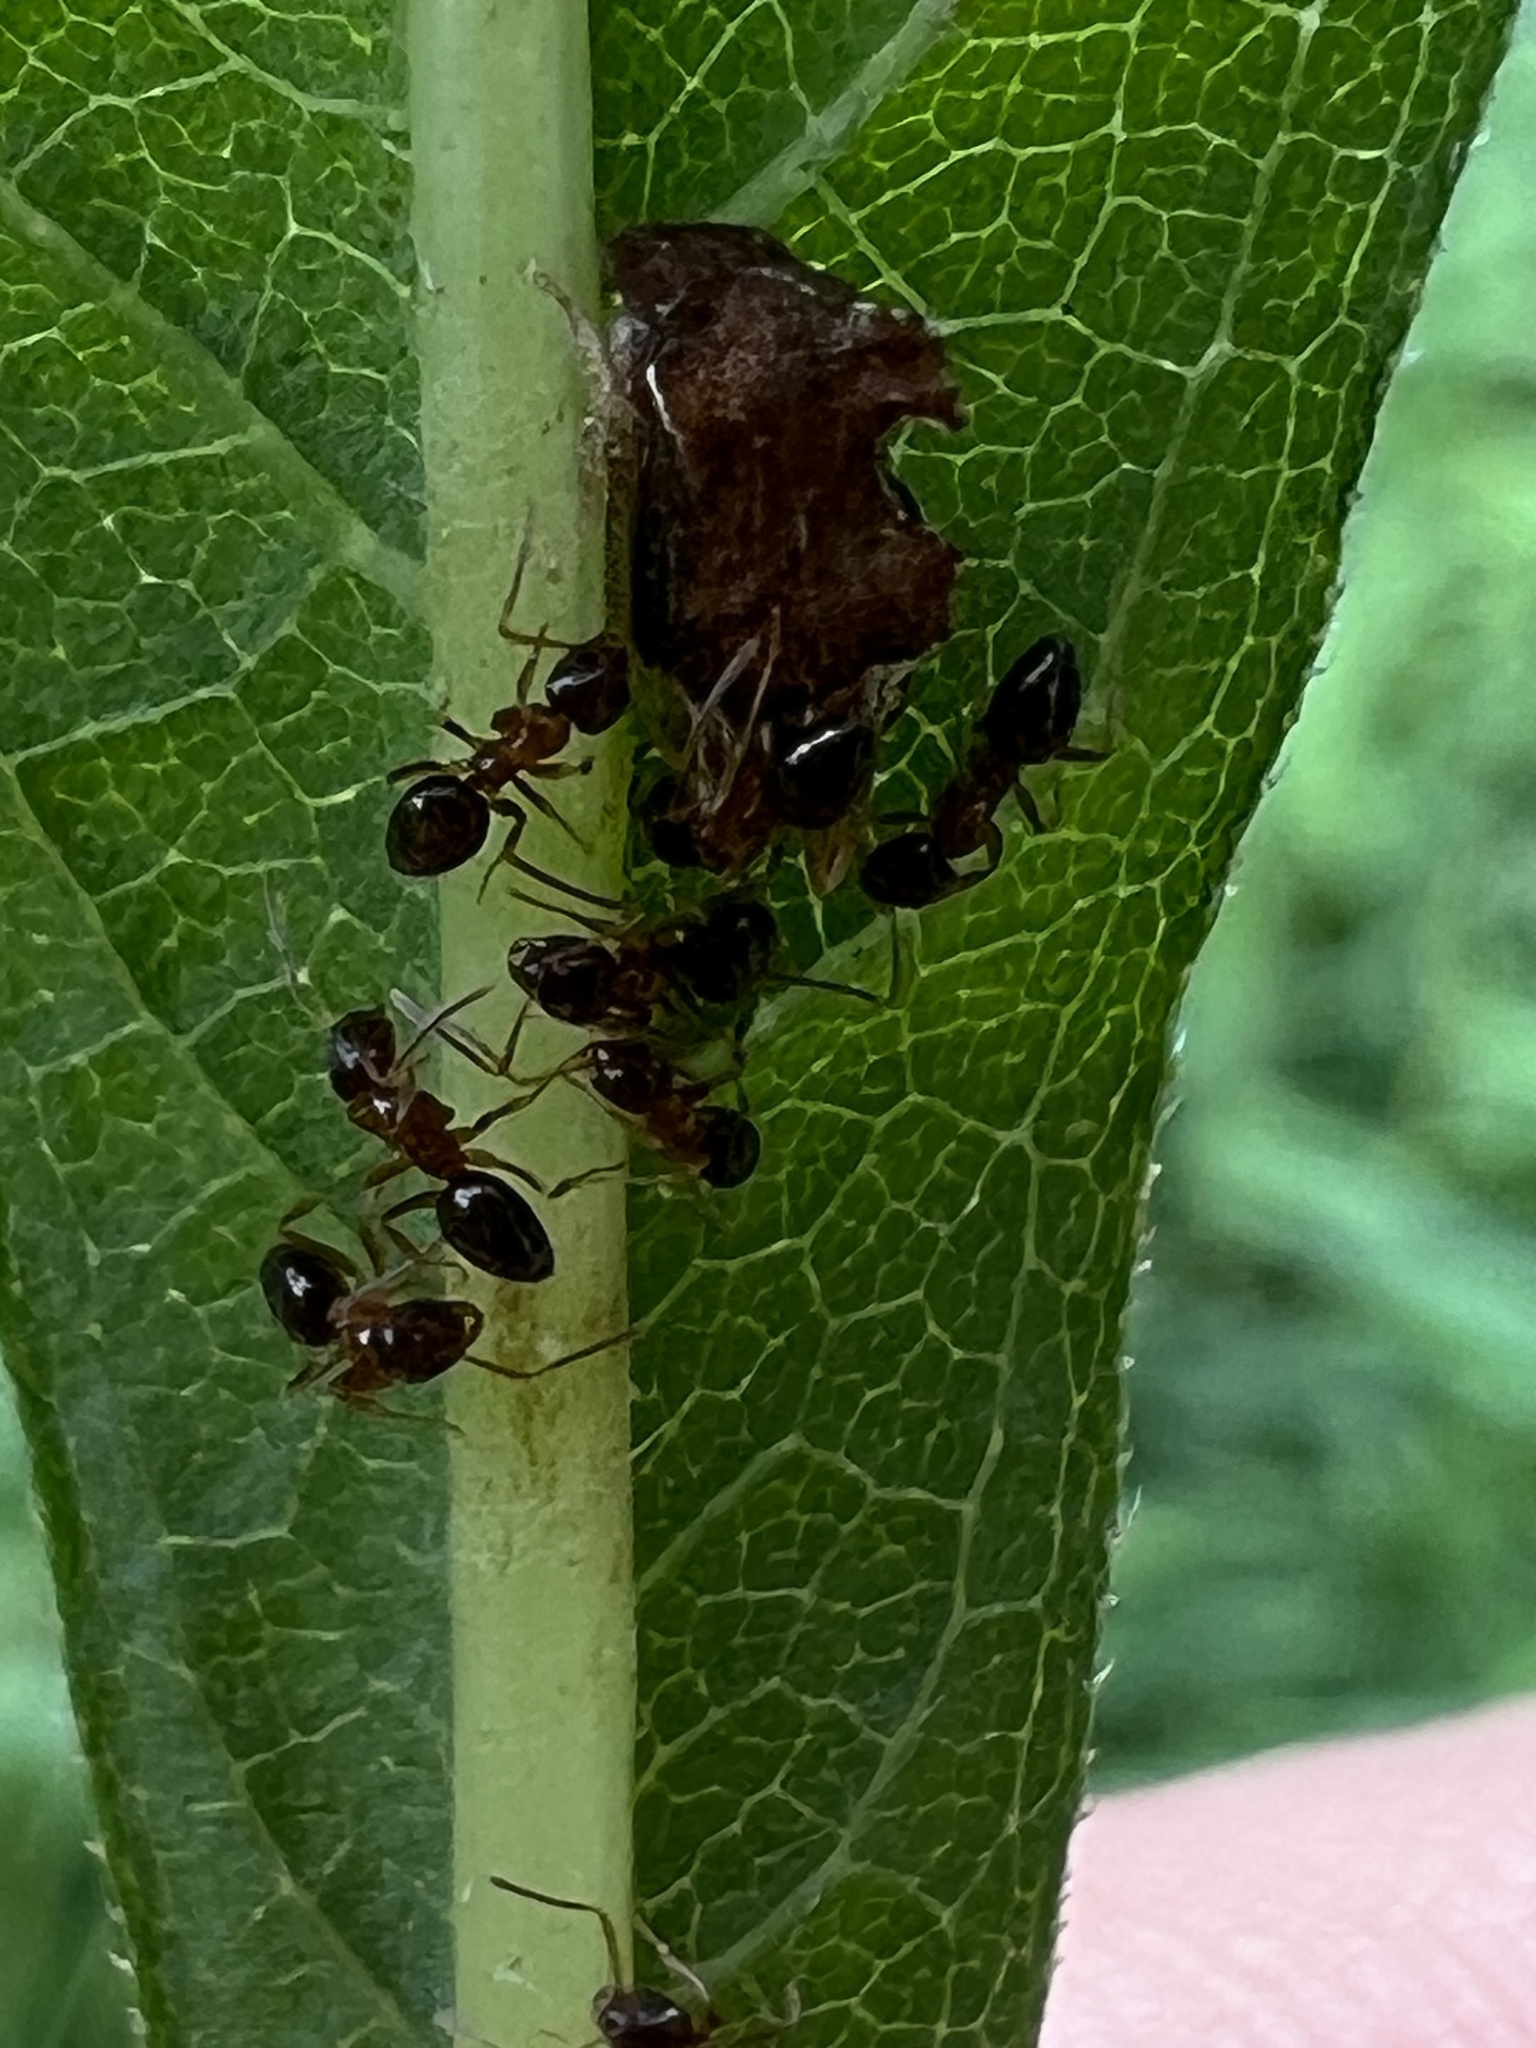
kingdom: Animalia
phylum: Arthropoda
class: Insecta
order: Hemiptera
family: Membracidae
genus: Entylia
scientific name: Entylia carinata
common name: Keeled treehopper
